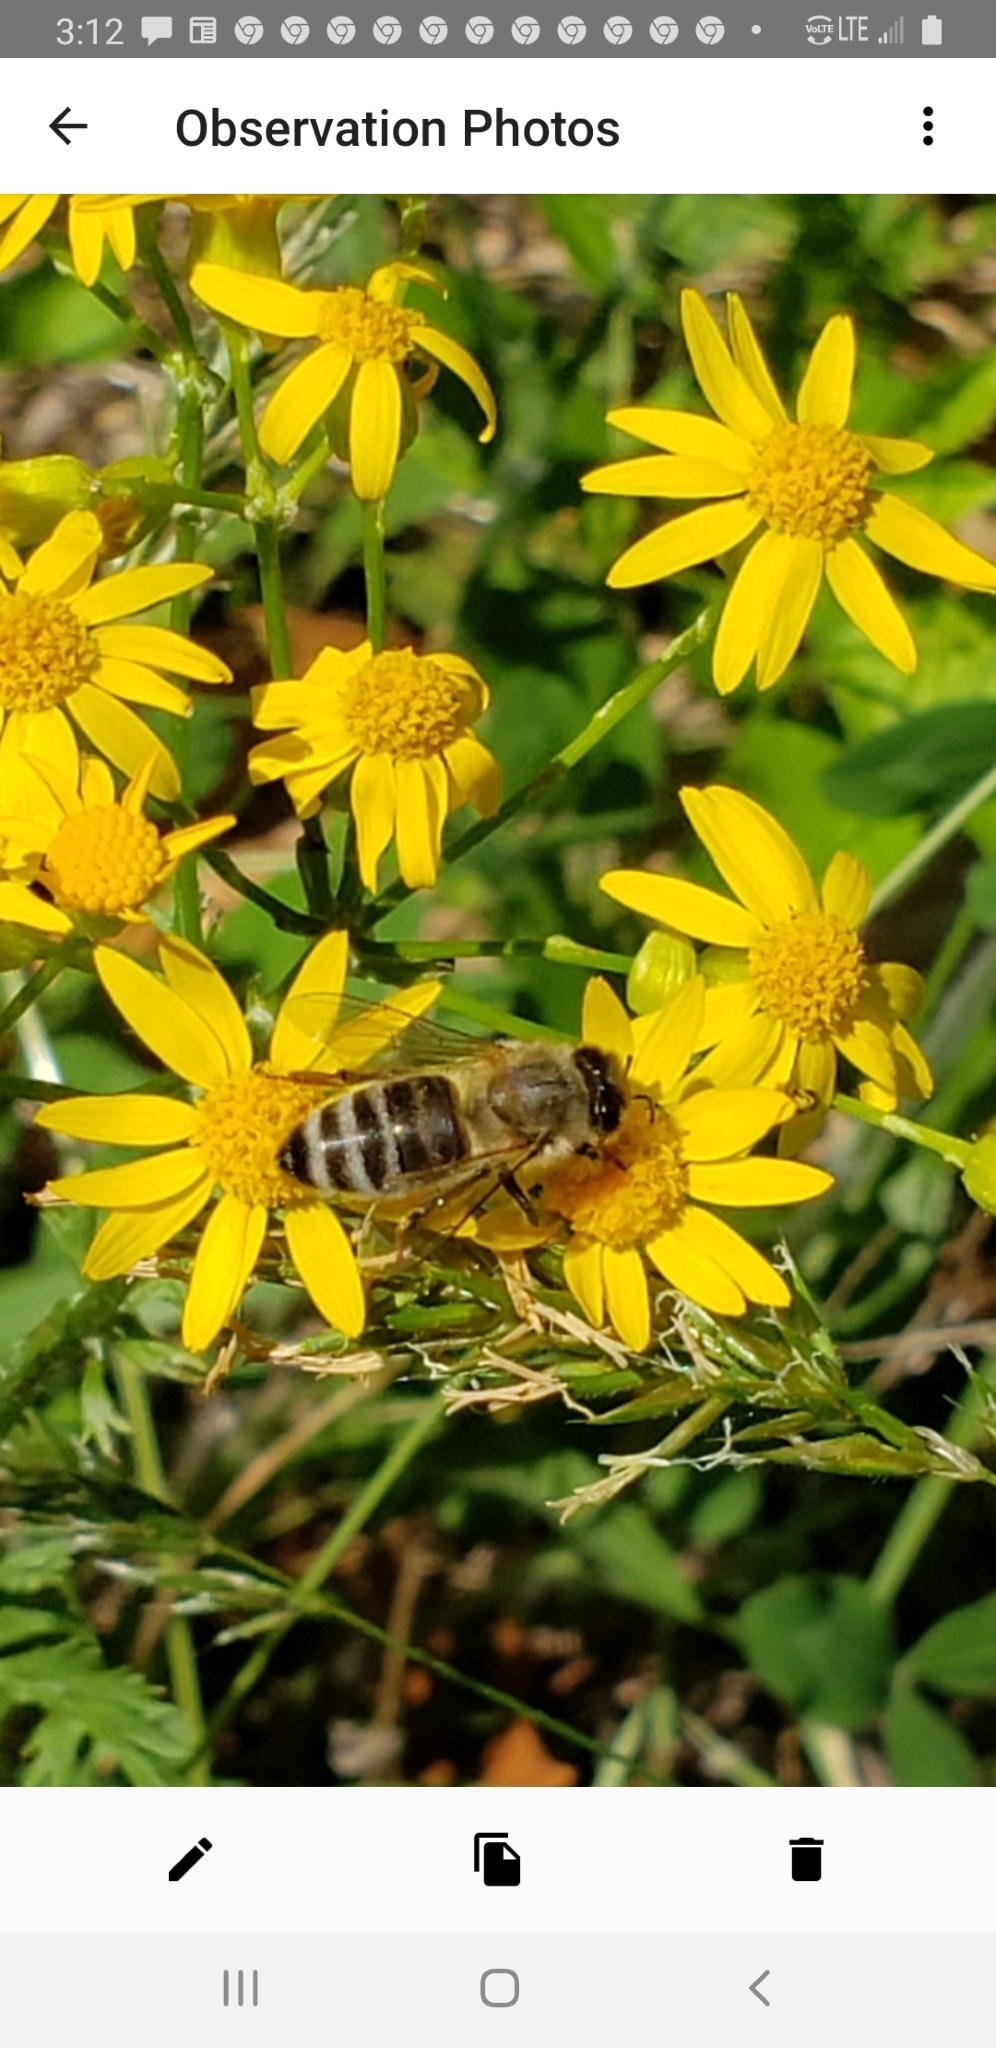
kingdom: Animalia
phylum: Arthropoda
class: Insecta
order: Hymenoptera
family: Apidae
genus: Apis
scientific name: Apis mellifera
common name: Honey bee
